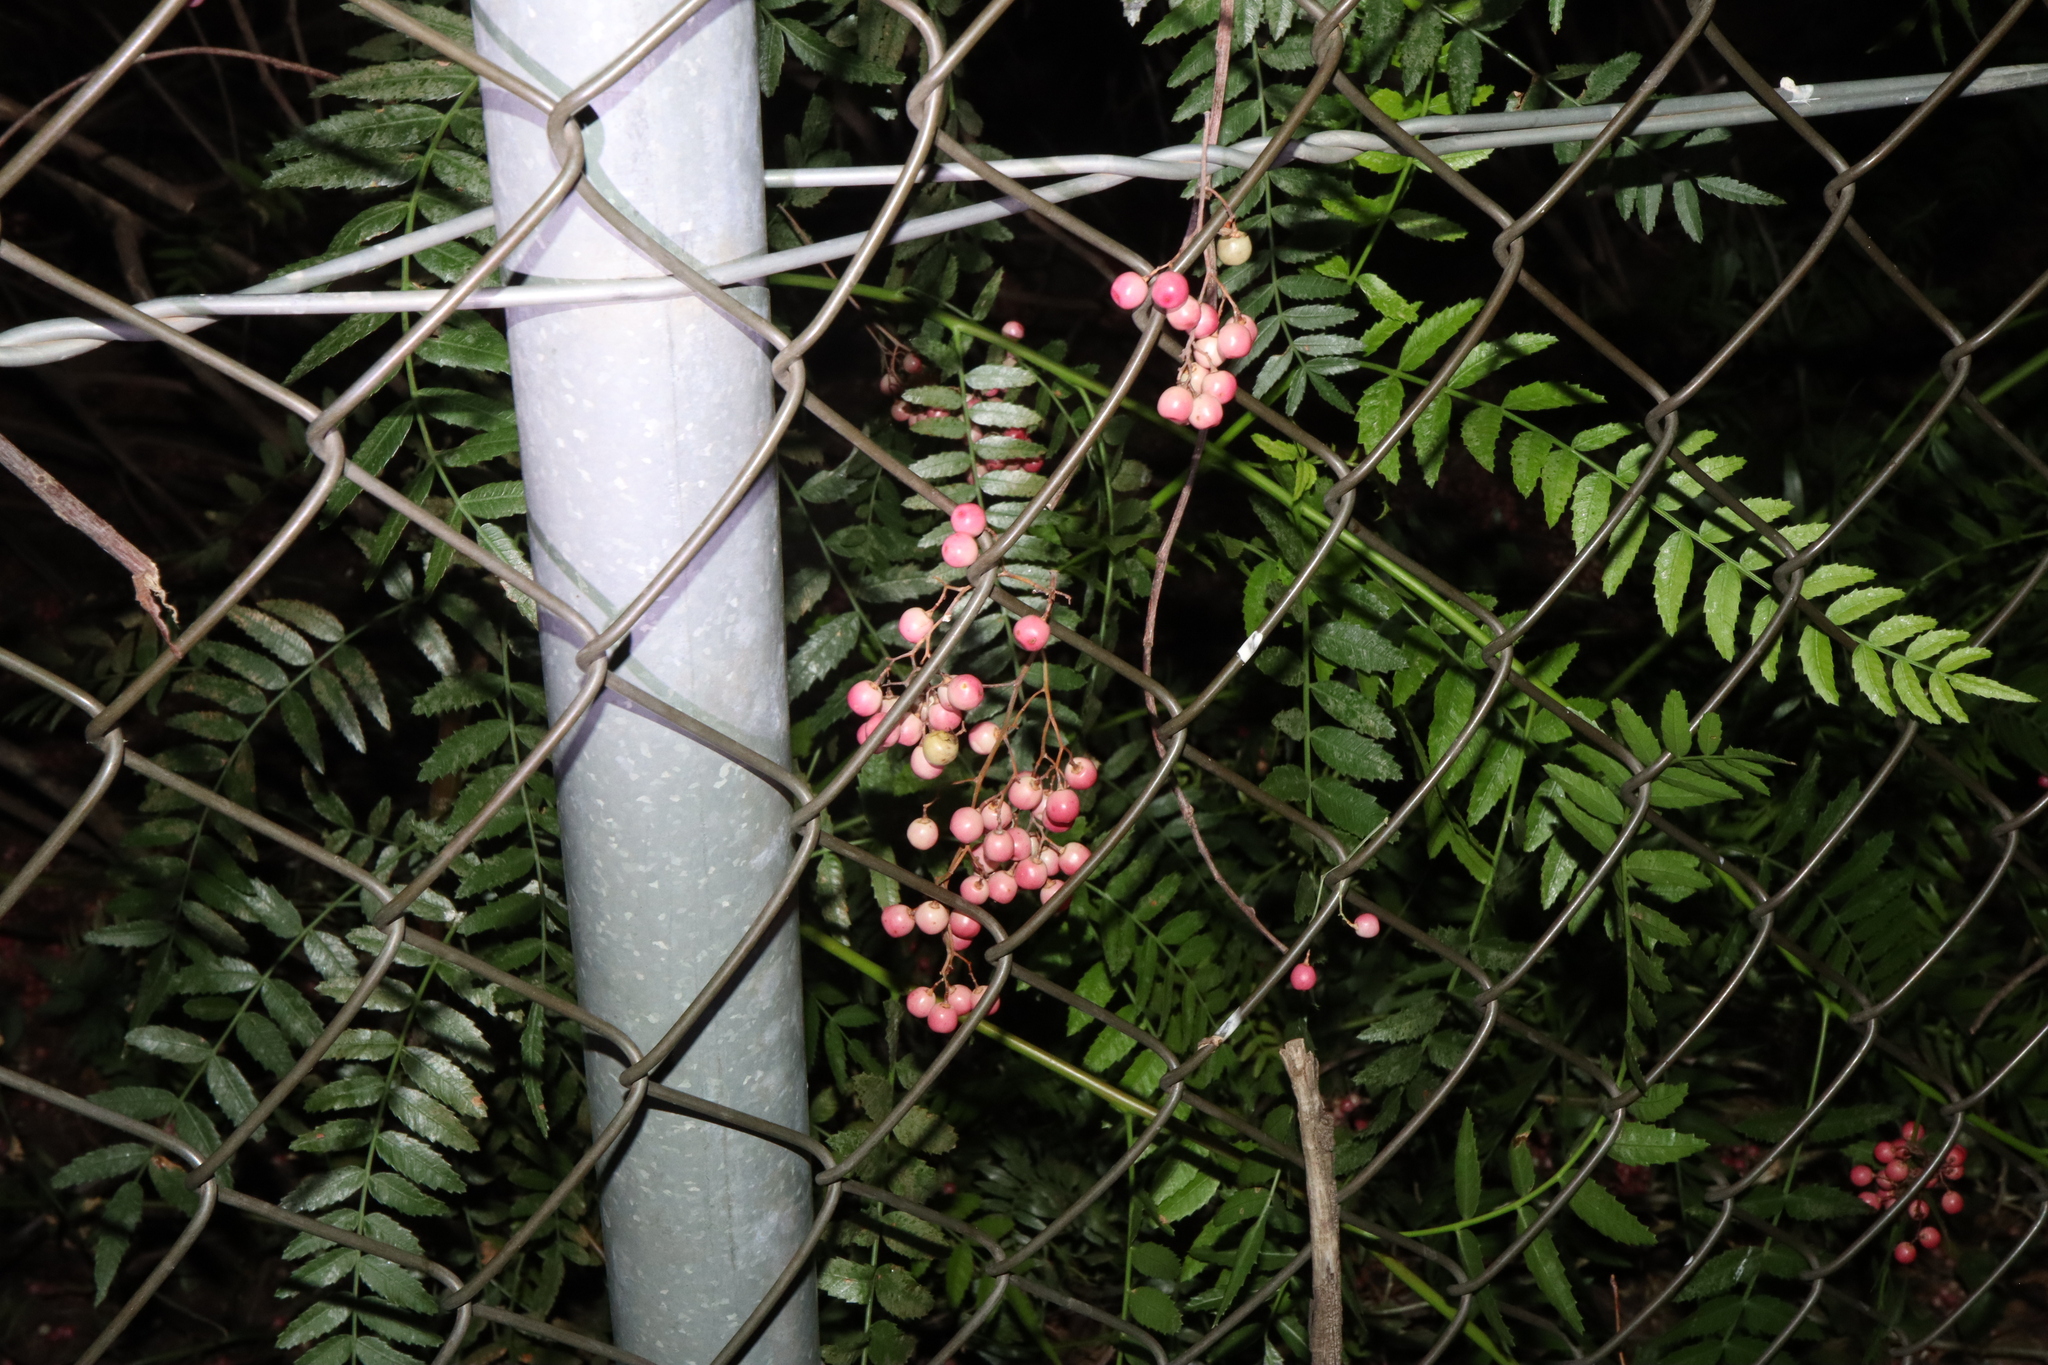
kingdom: Plantae
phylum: Tracheophyta
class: Magnoliopsida
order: Sapindales
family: Anacardiaceae
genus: Schinus
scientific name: Schinus molle
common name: Peruvian peppertree
